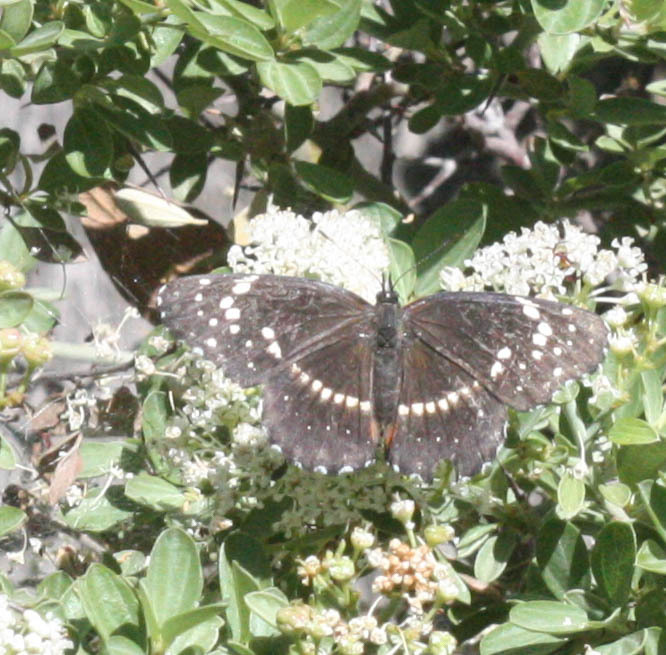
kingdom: Animalia
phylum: Arthropoda
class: Insecta
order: Lepidoptera
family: Nymphalidae
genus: Chlosyne
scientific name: Chlosyne lacinia
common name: Bordered patch
